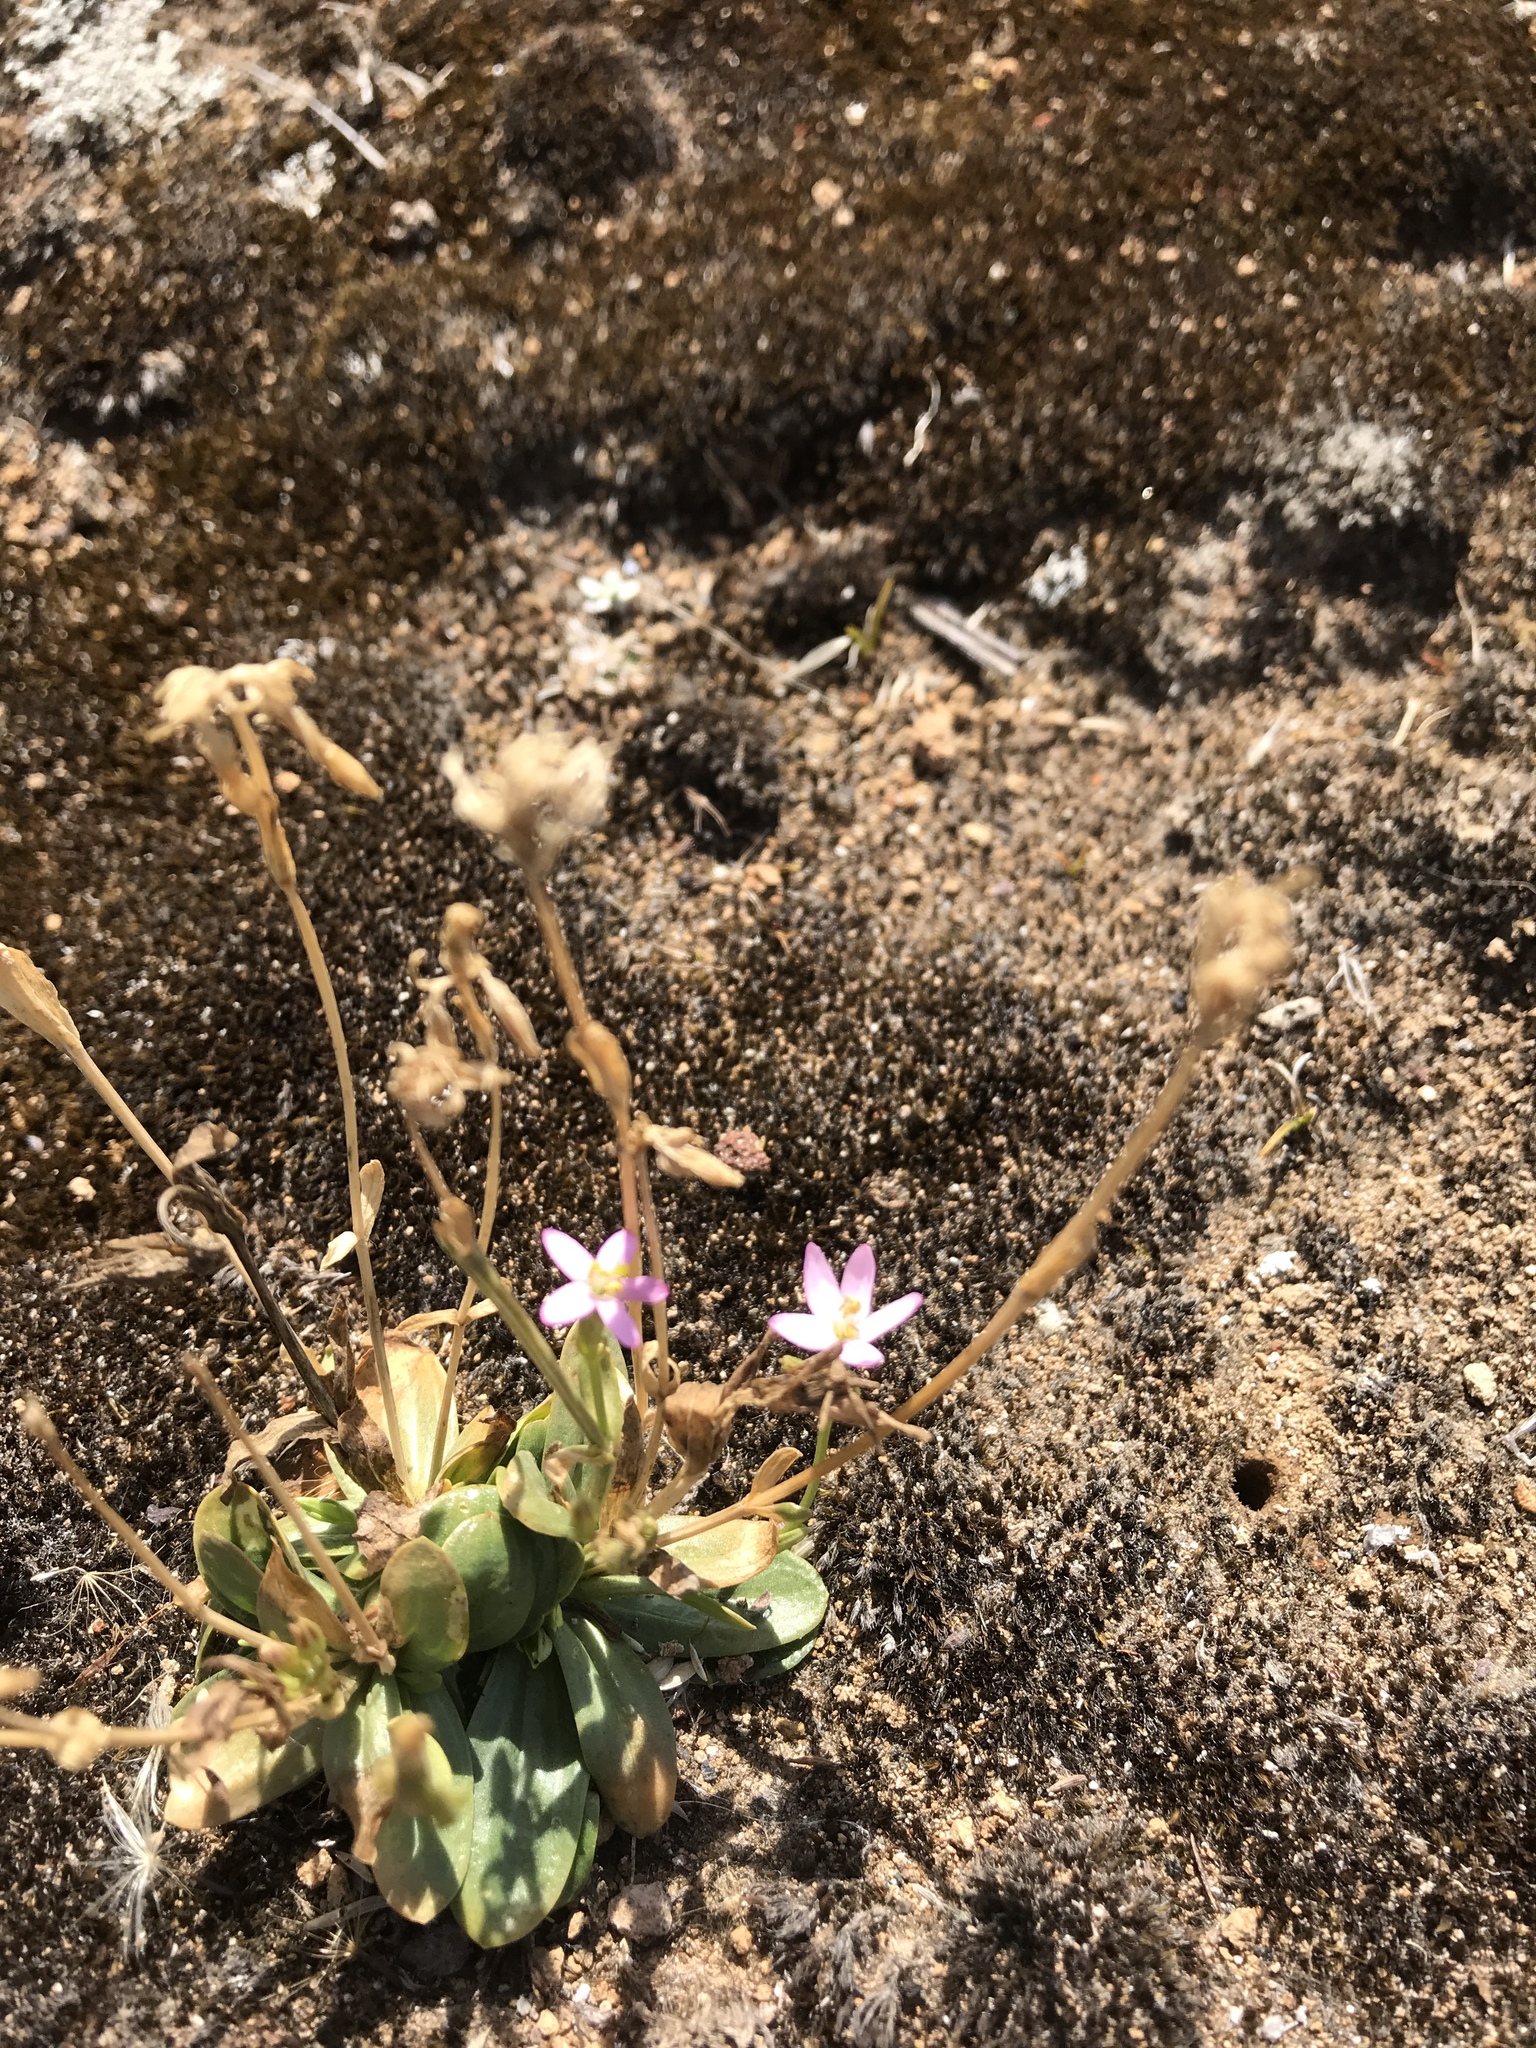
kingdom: Plantae
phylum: Tracheophyta
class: Magnoliopsida
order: Gentianales
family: Gentianaceae
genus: Centaurium
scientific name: Centaurium erythraea
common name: Common centaury
